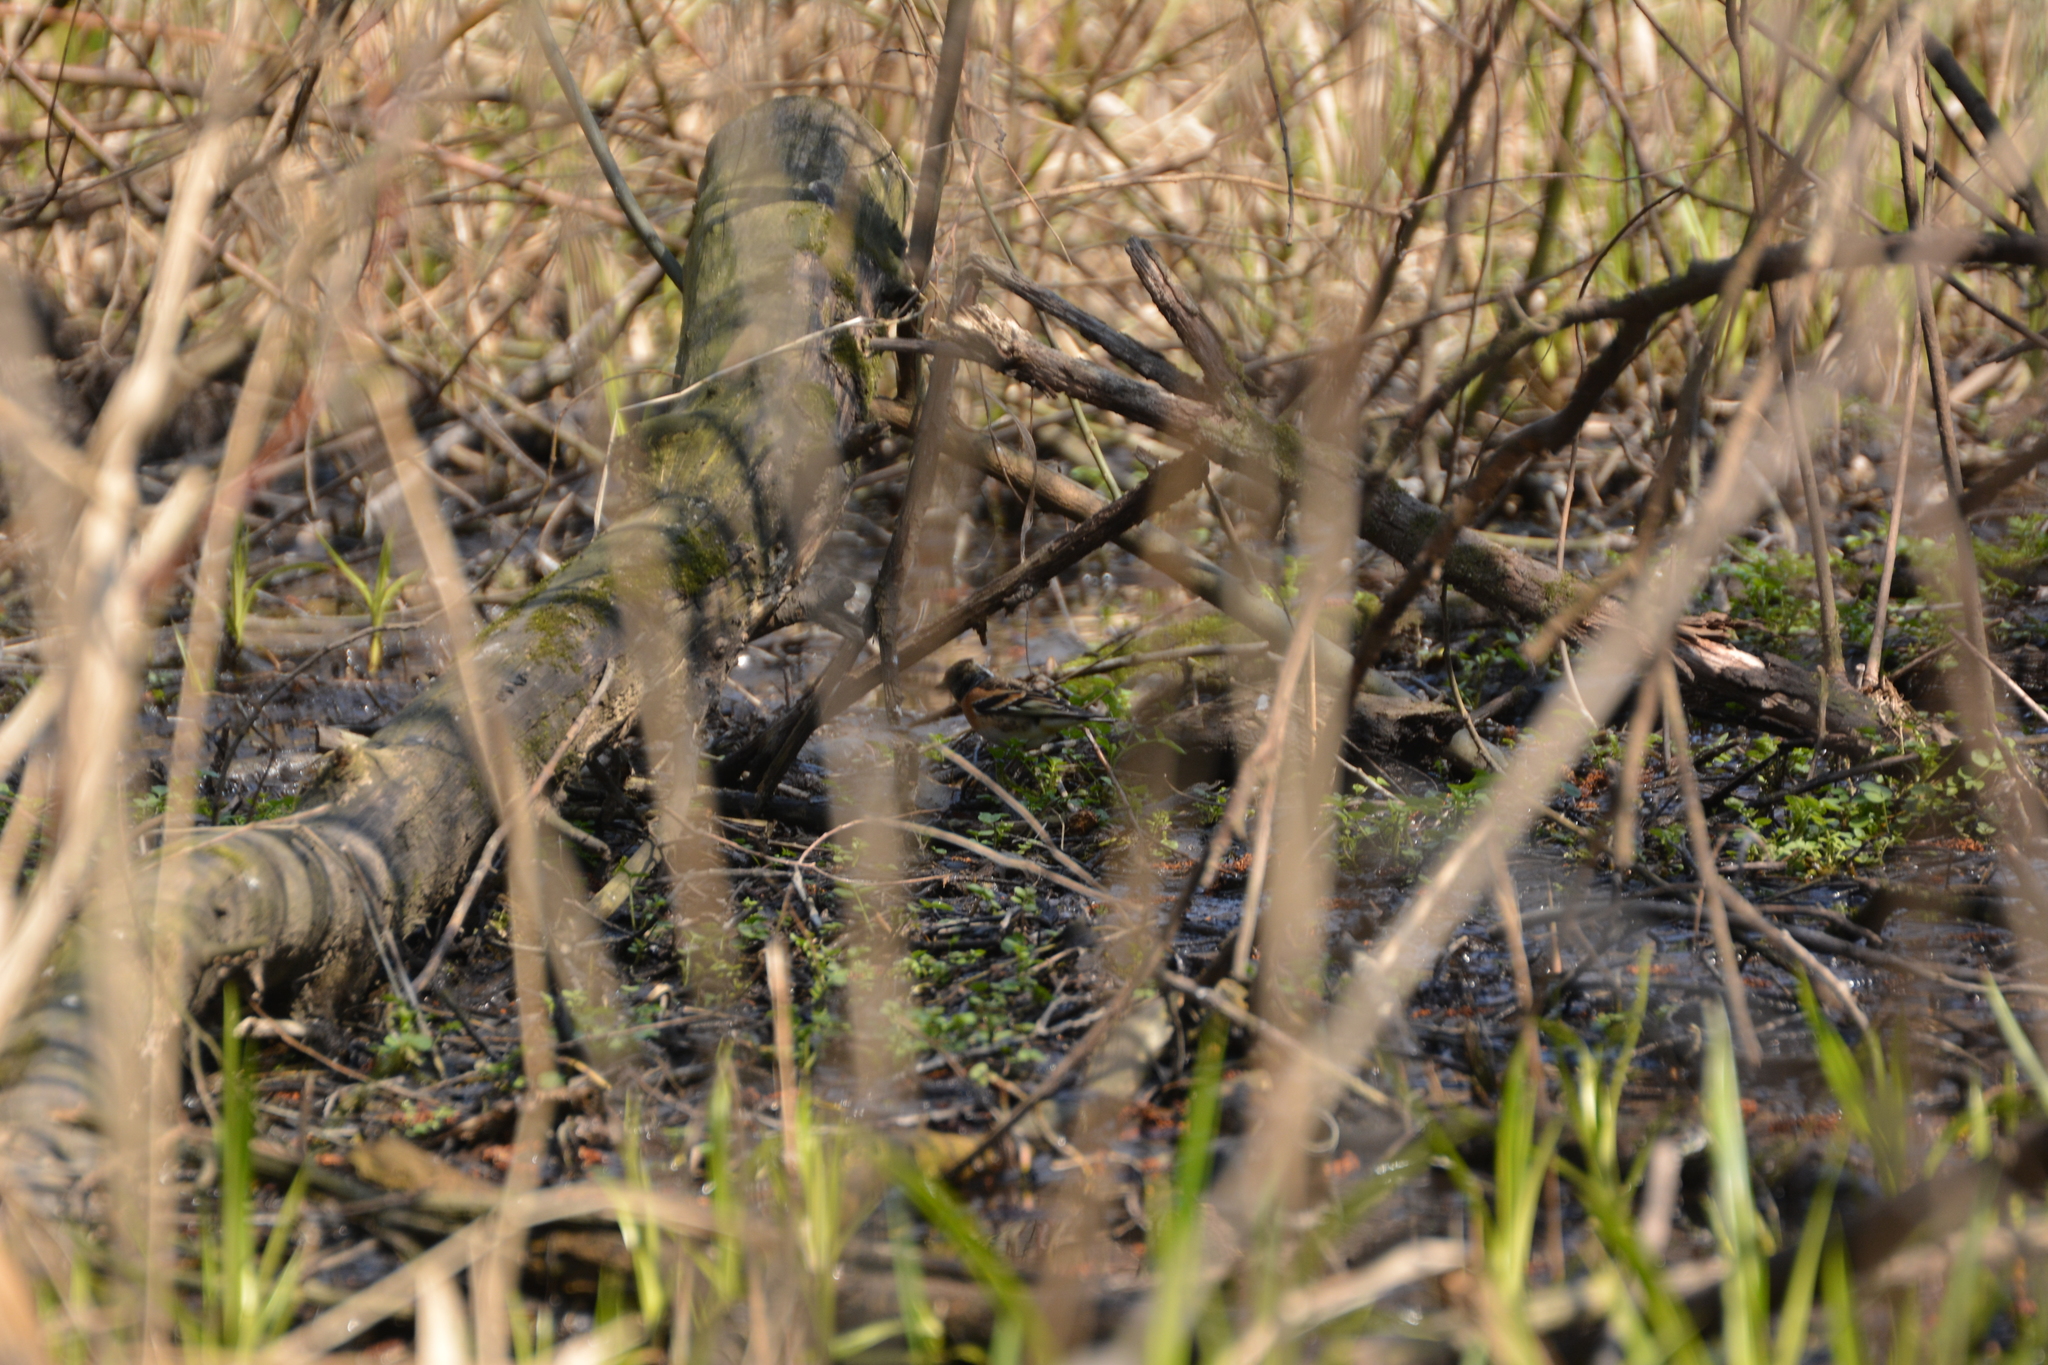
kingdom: Animalia
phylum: Chordata
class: Aves
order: Passeriformes
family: Fringillidae
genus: Fringilla
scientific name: Fringilla montifringilla
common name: Brambling
